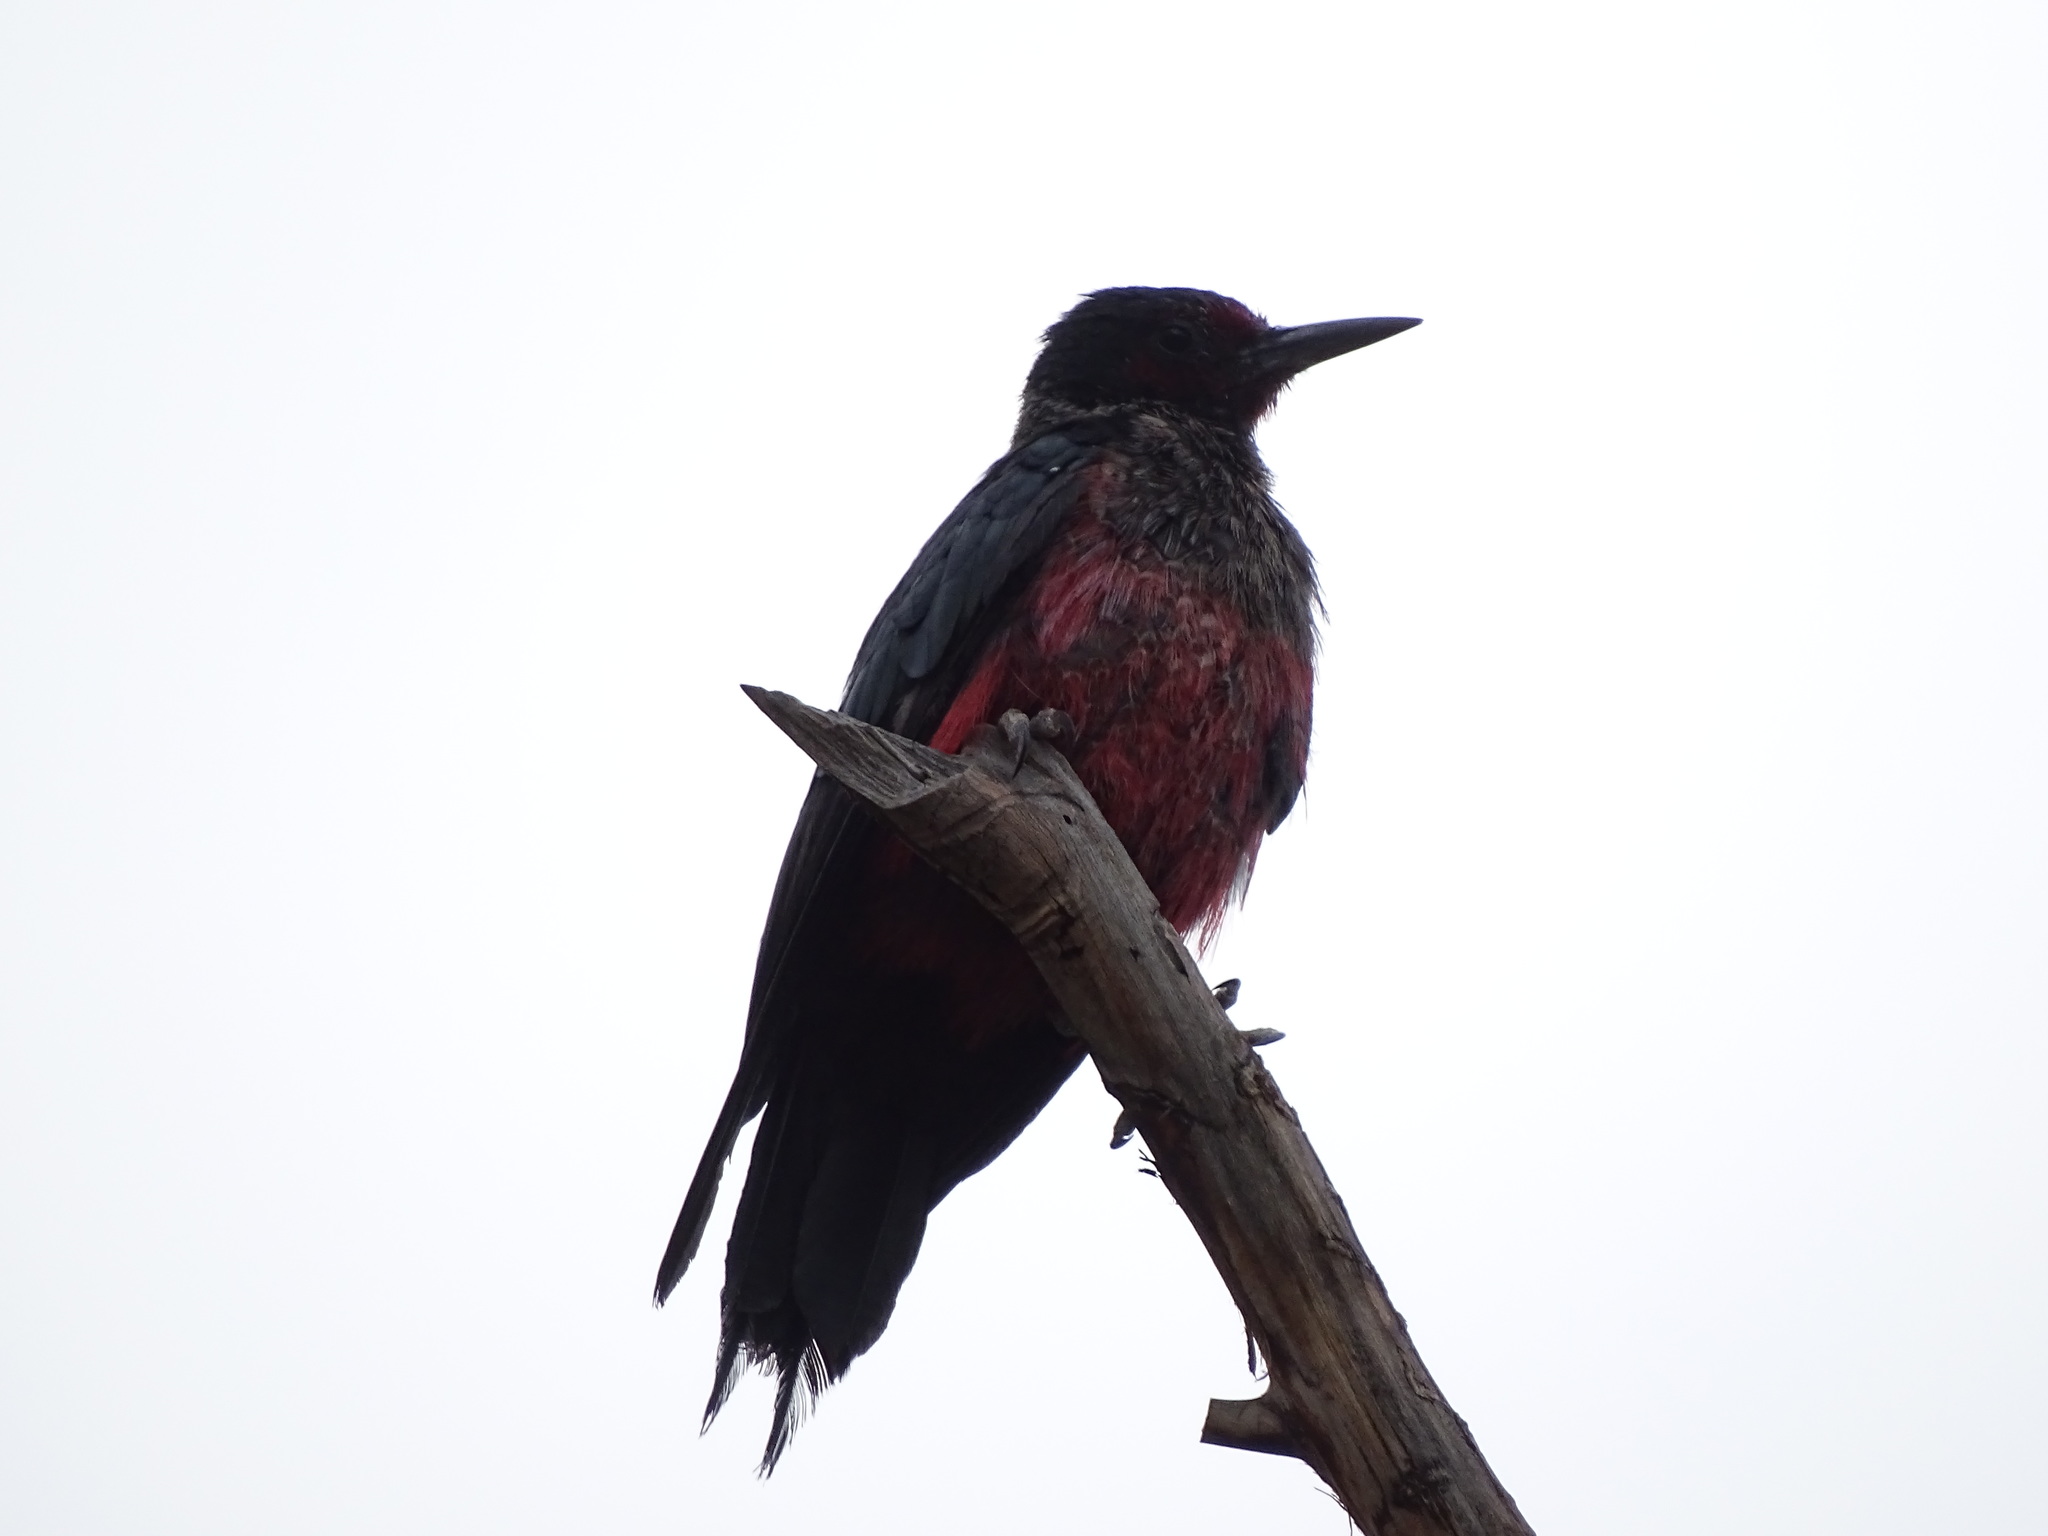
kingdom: Animalia
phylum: Chordata
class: Aves
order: Piciformes
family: Picidae
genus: Melanerpes
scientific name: Melanerpes lewis
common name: Lewis's woodpecker
